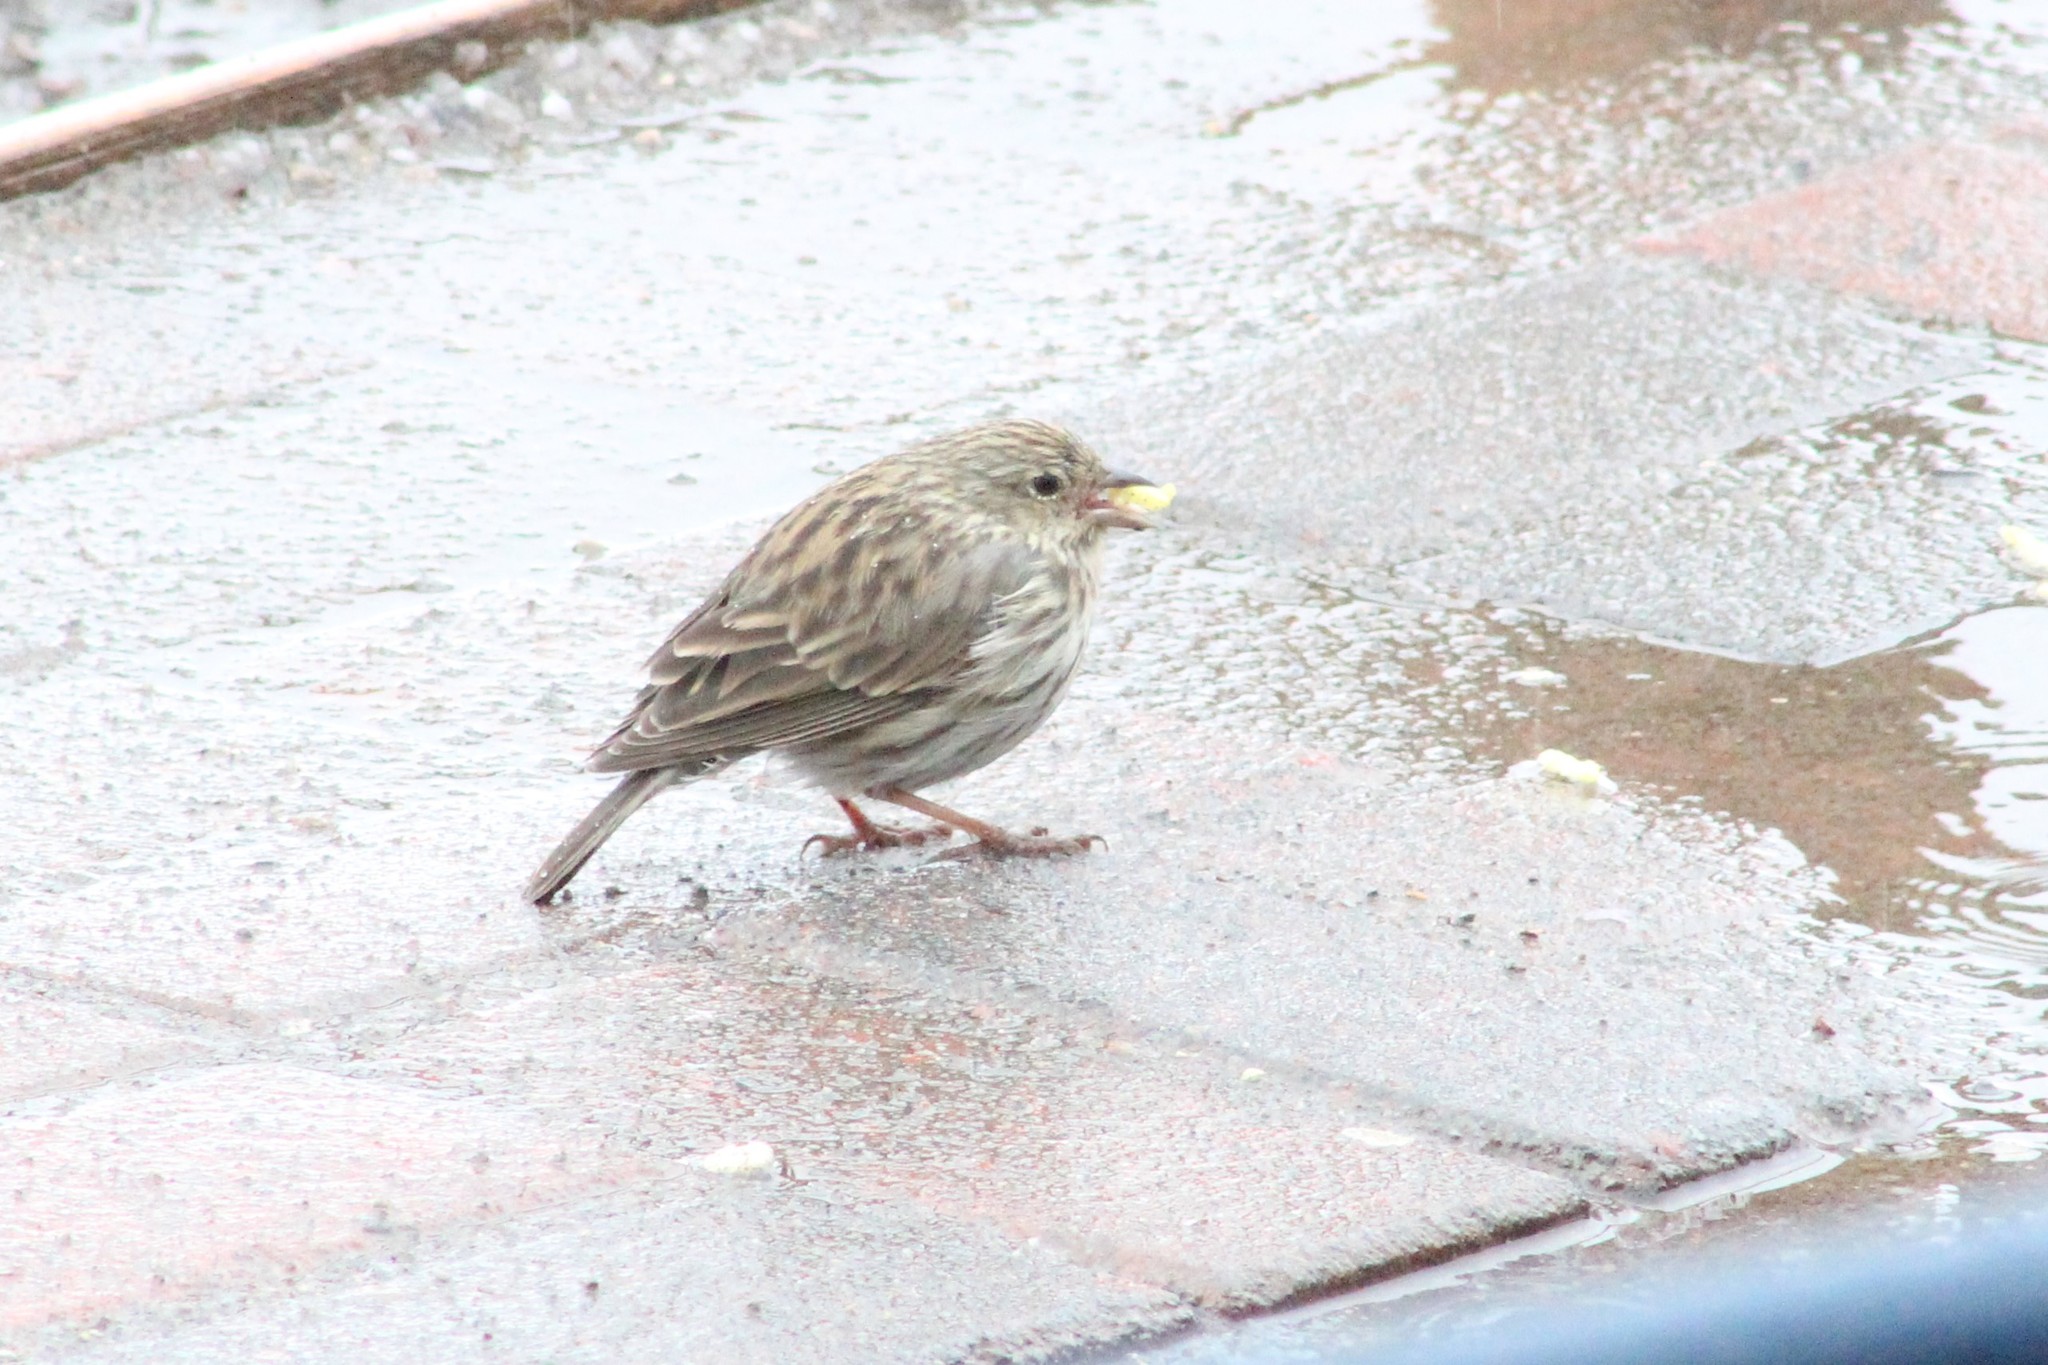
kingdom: Animalia
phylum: Chordata
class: Aves
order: Passeriformes
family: Thraupidae
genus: Geospizopsis
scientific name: Geospizopsis unicolor
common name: Plumbeous sierra-finch
